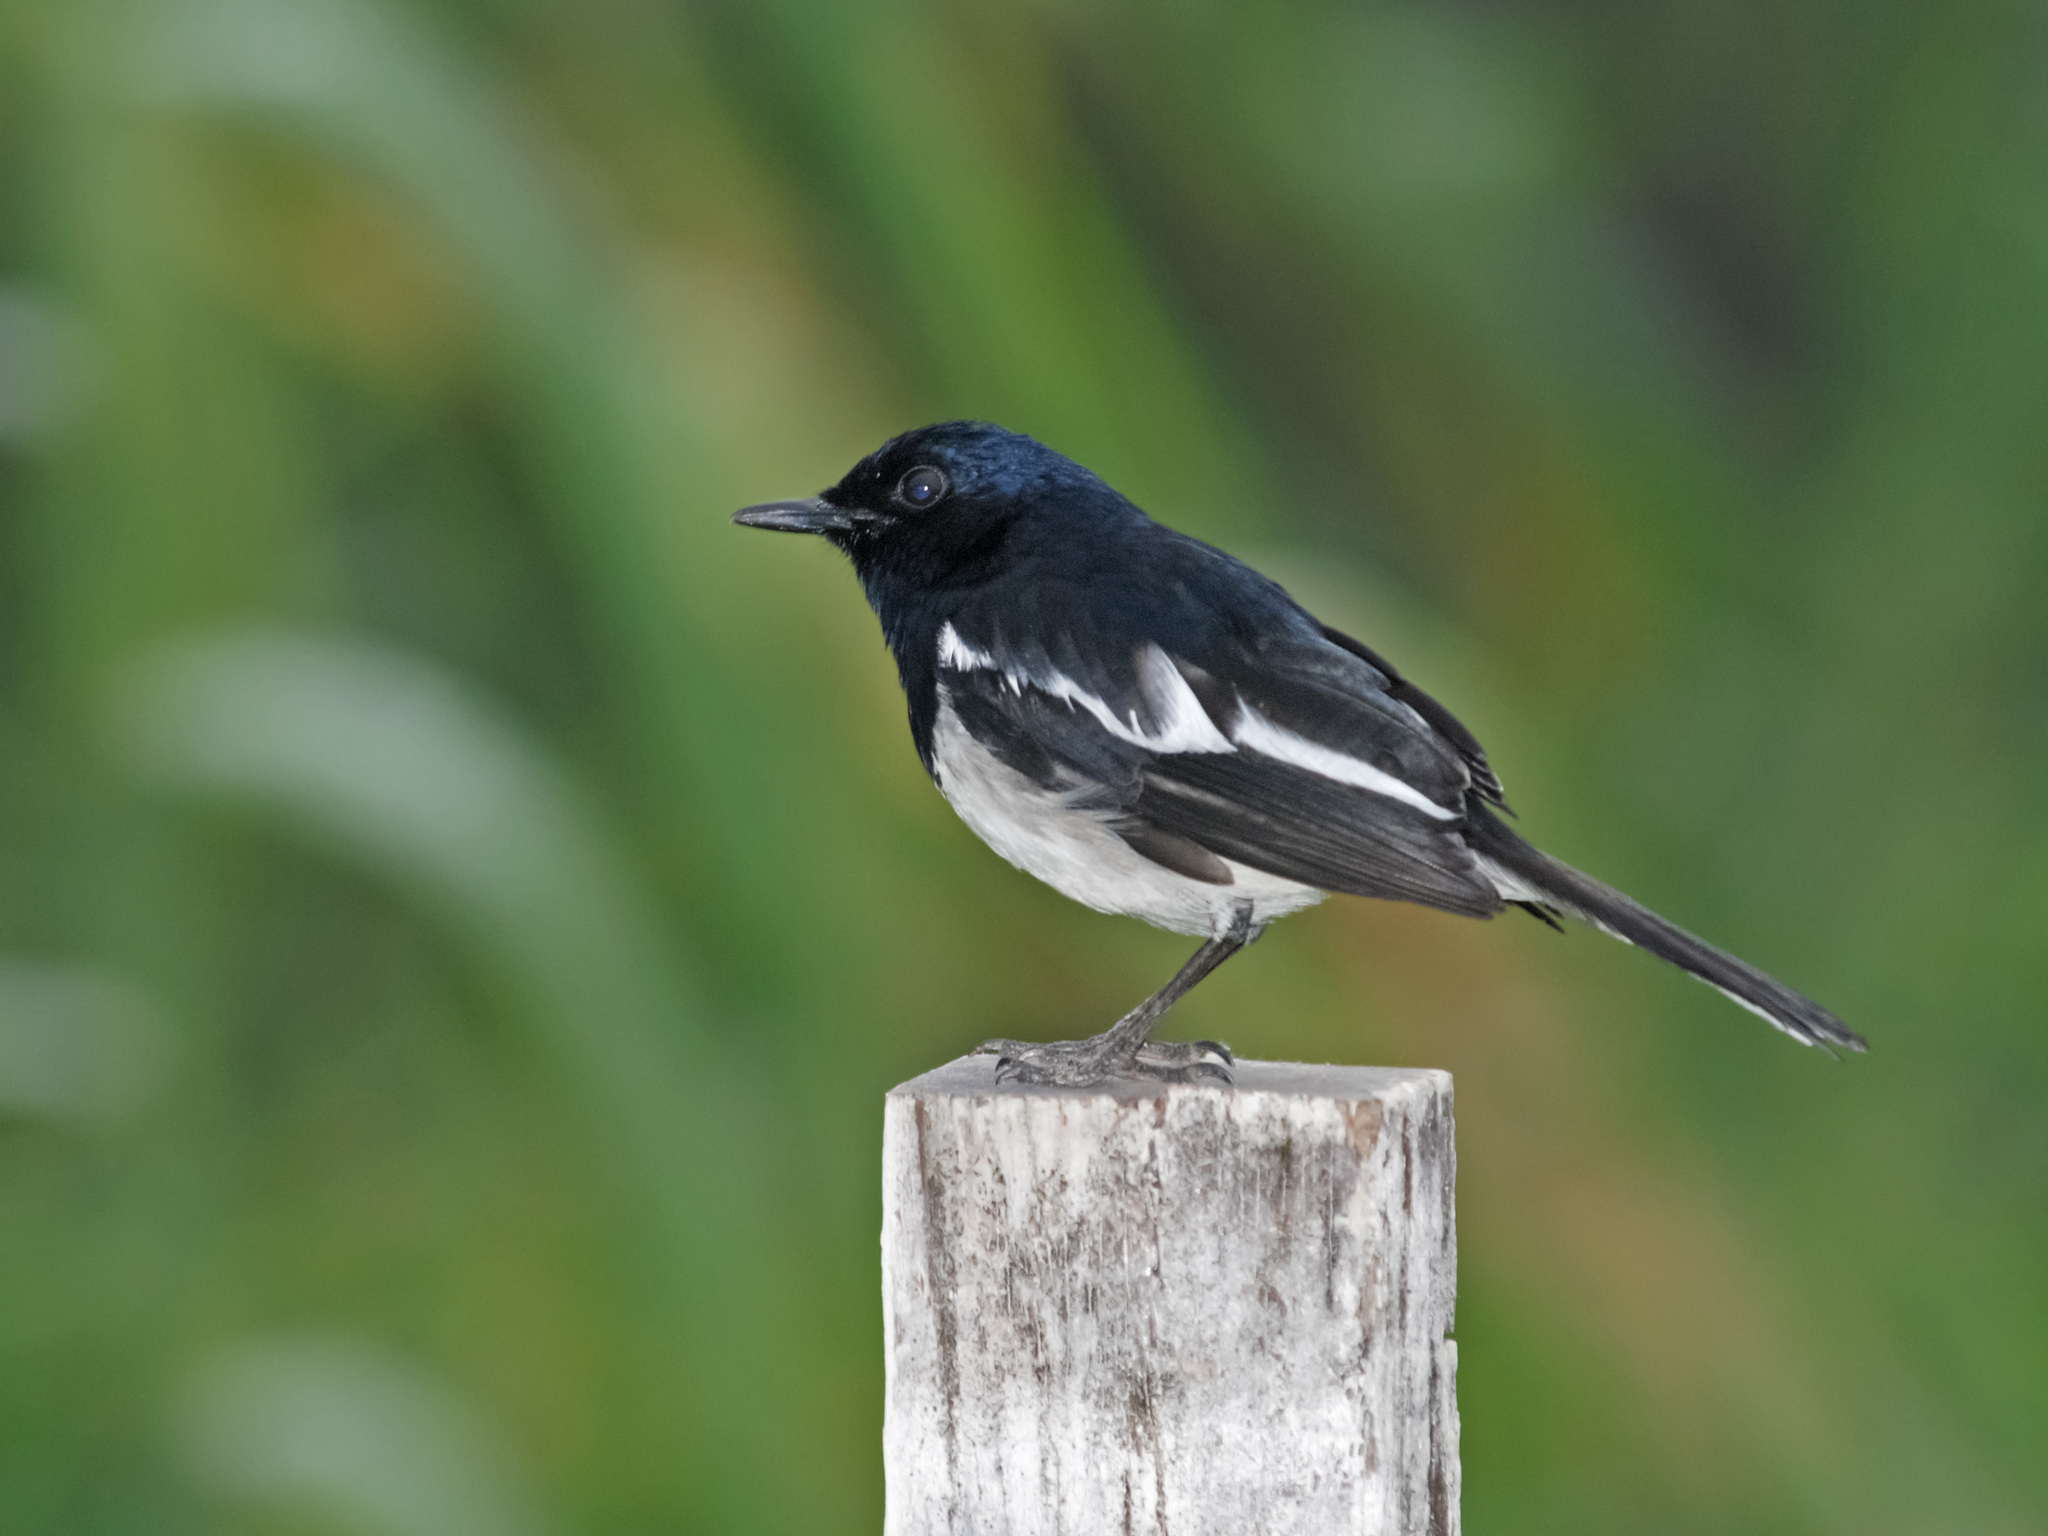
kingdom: Animalia
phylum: Chordata
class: Aves
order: Passeriformes
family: Muscicapidae
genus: Copsychus
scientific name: Copsychus saularis
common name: Oriental magpie-robin
